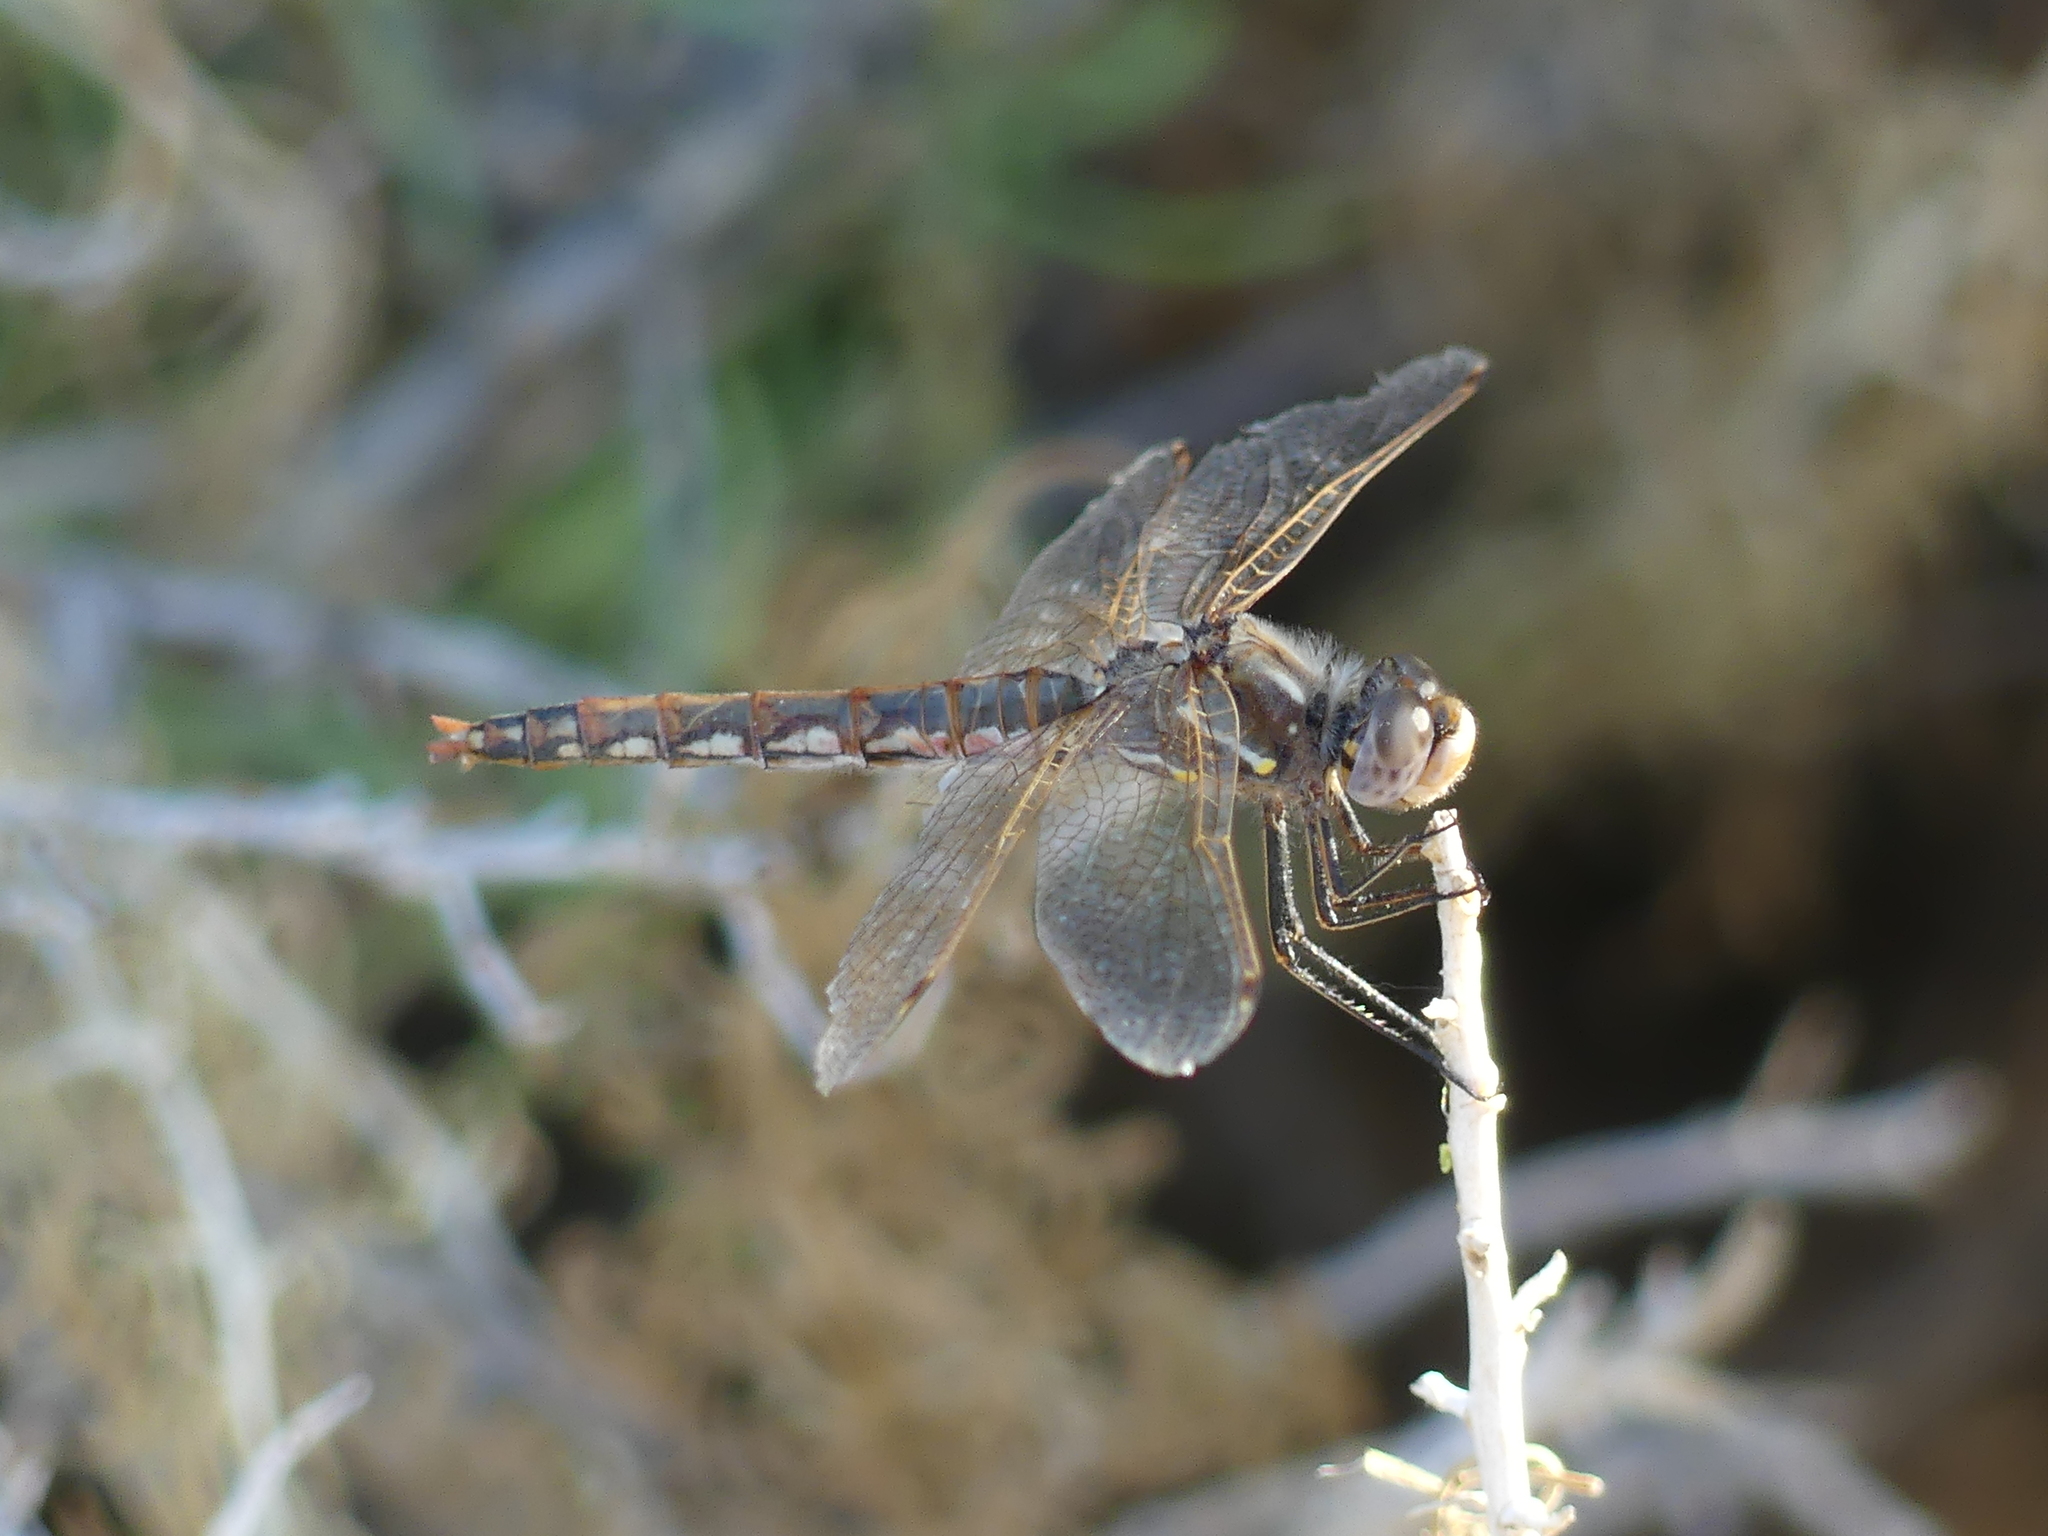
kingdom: Animalia
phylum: Arthropoda
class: Insecta
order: Odonata
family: Libellulidae
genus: Sympetrum
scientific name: Sympetrum corruptum
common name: Variegated meadowhawk
